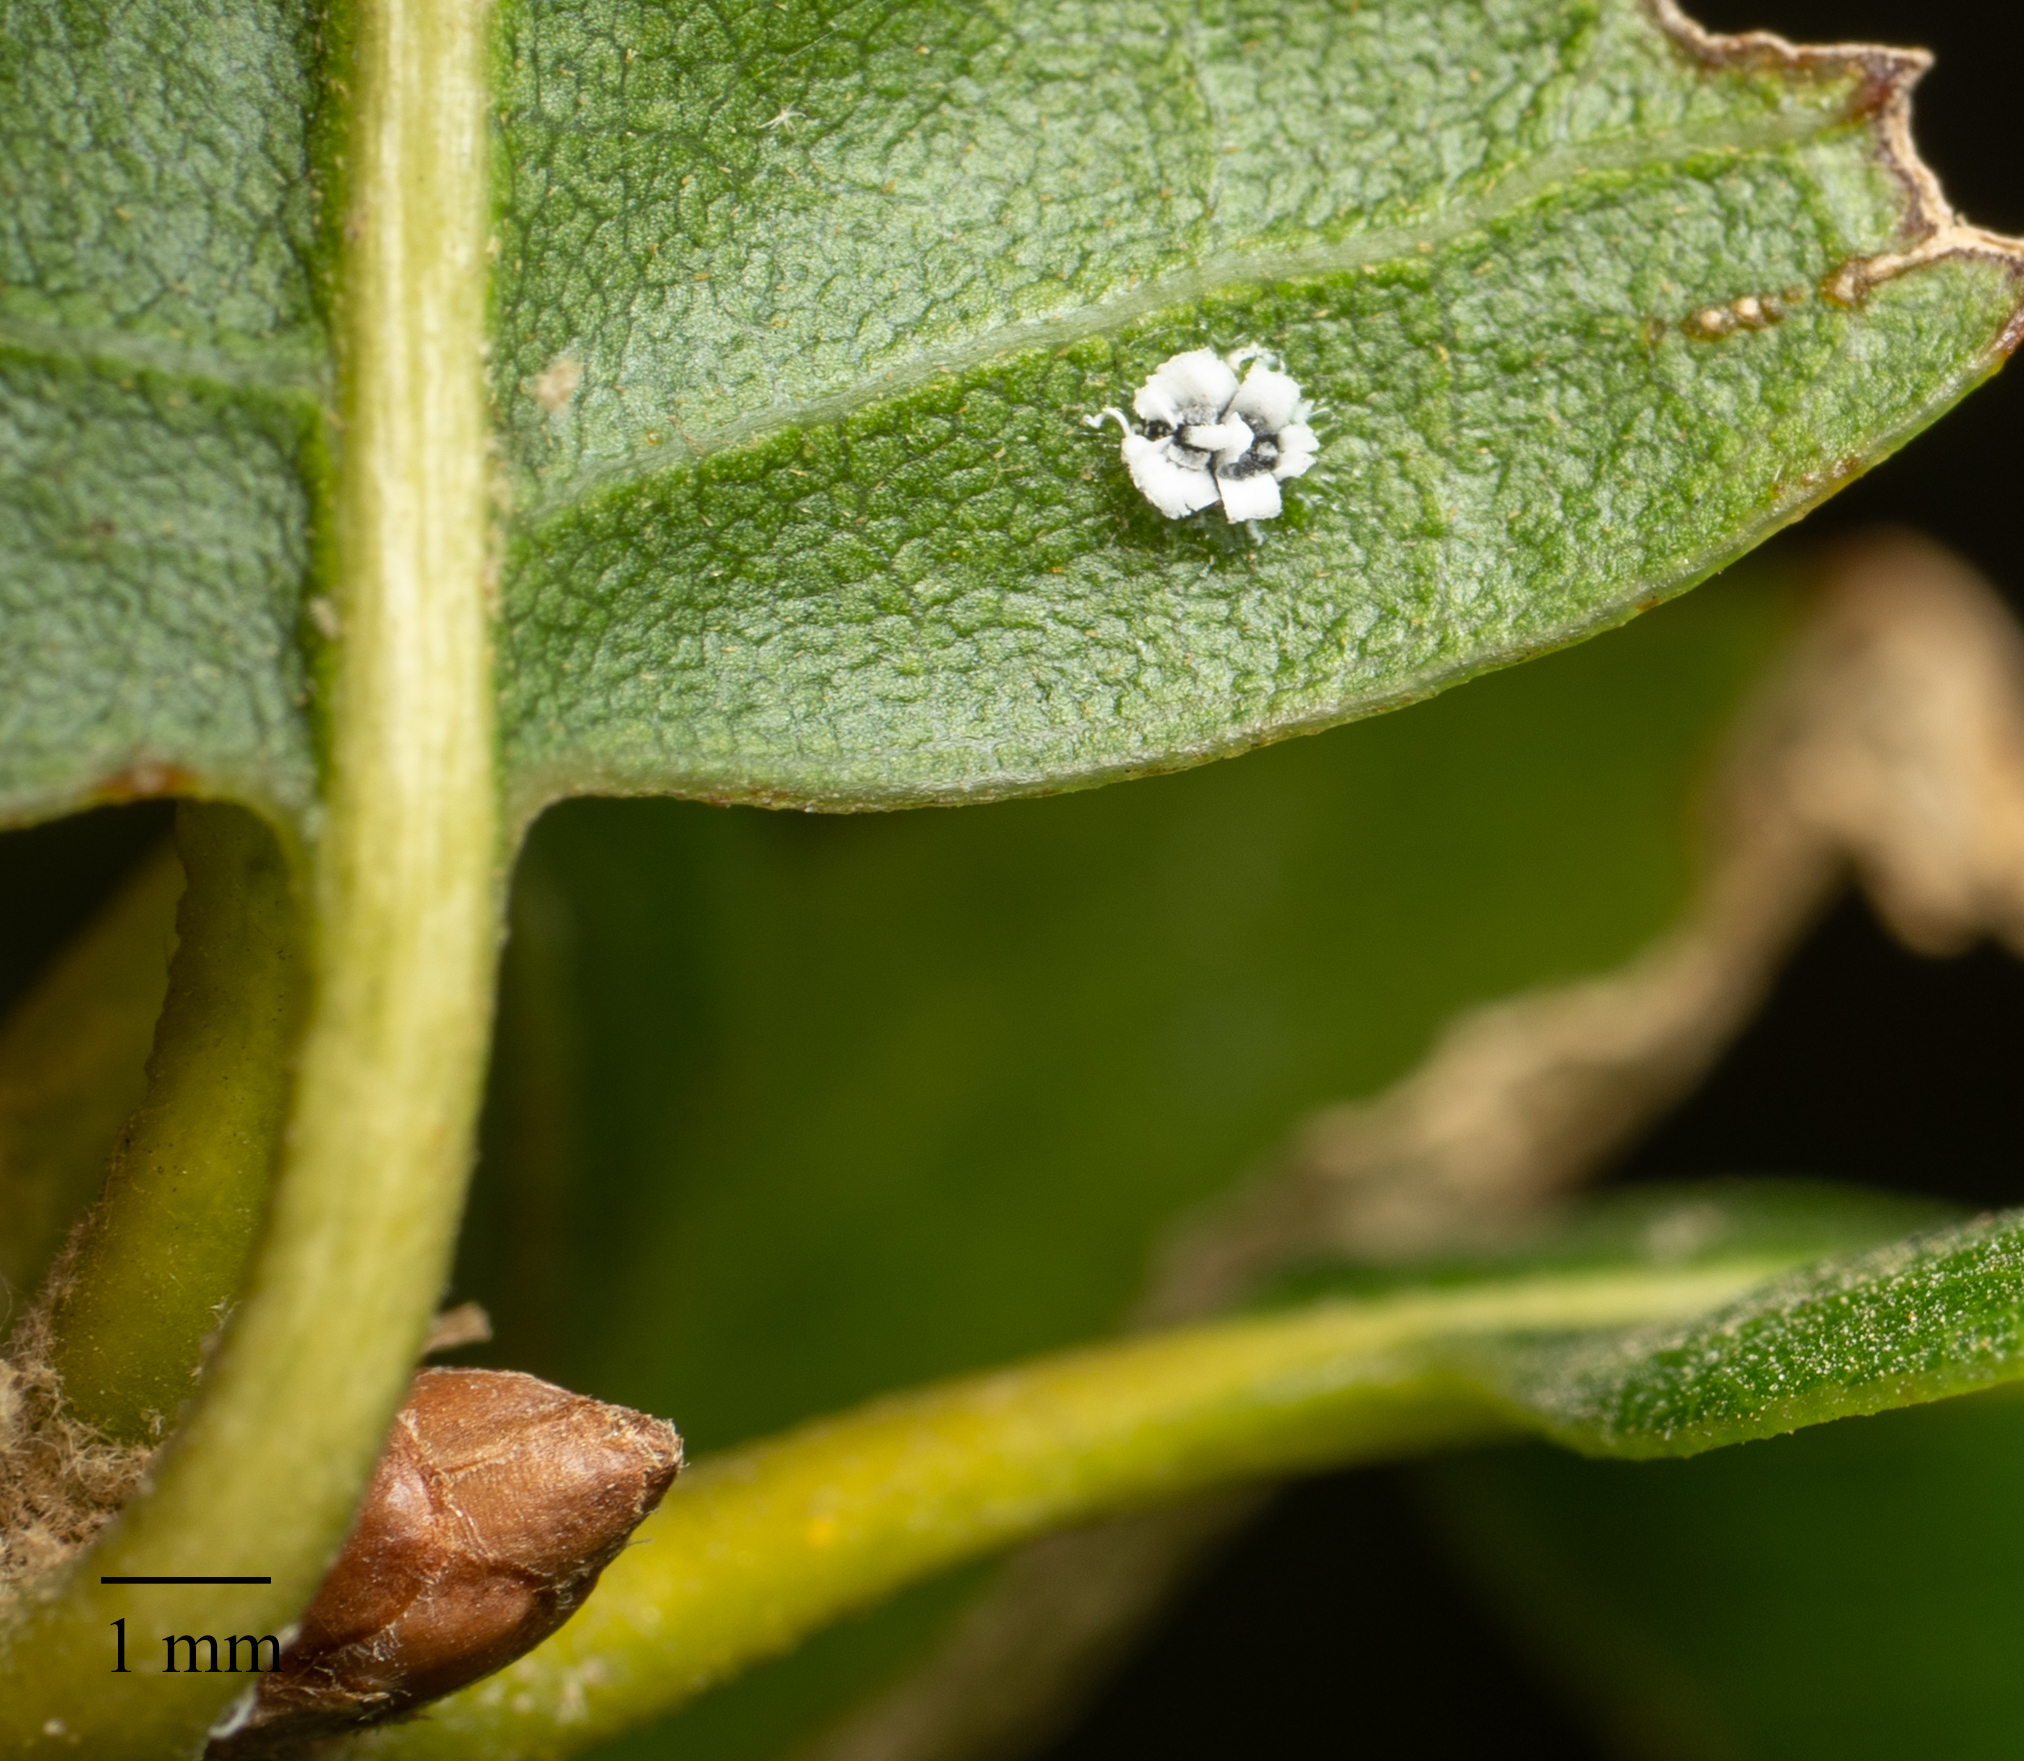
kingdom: Animalia
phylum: Arthropoda
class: Insecta
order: Hemiptera
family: Aleyrodidae
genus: Aleuroplatus
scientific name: Aleuroplatus coronata
